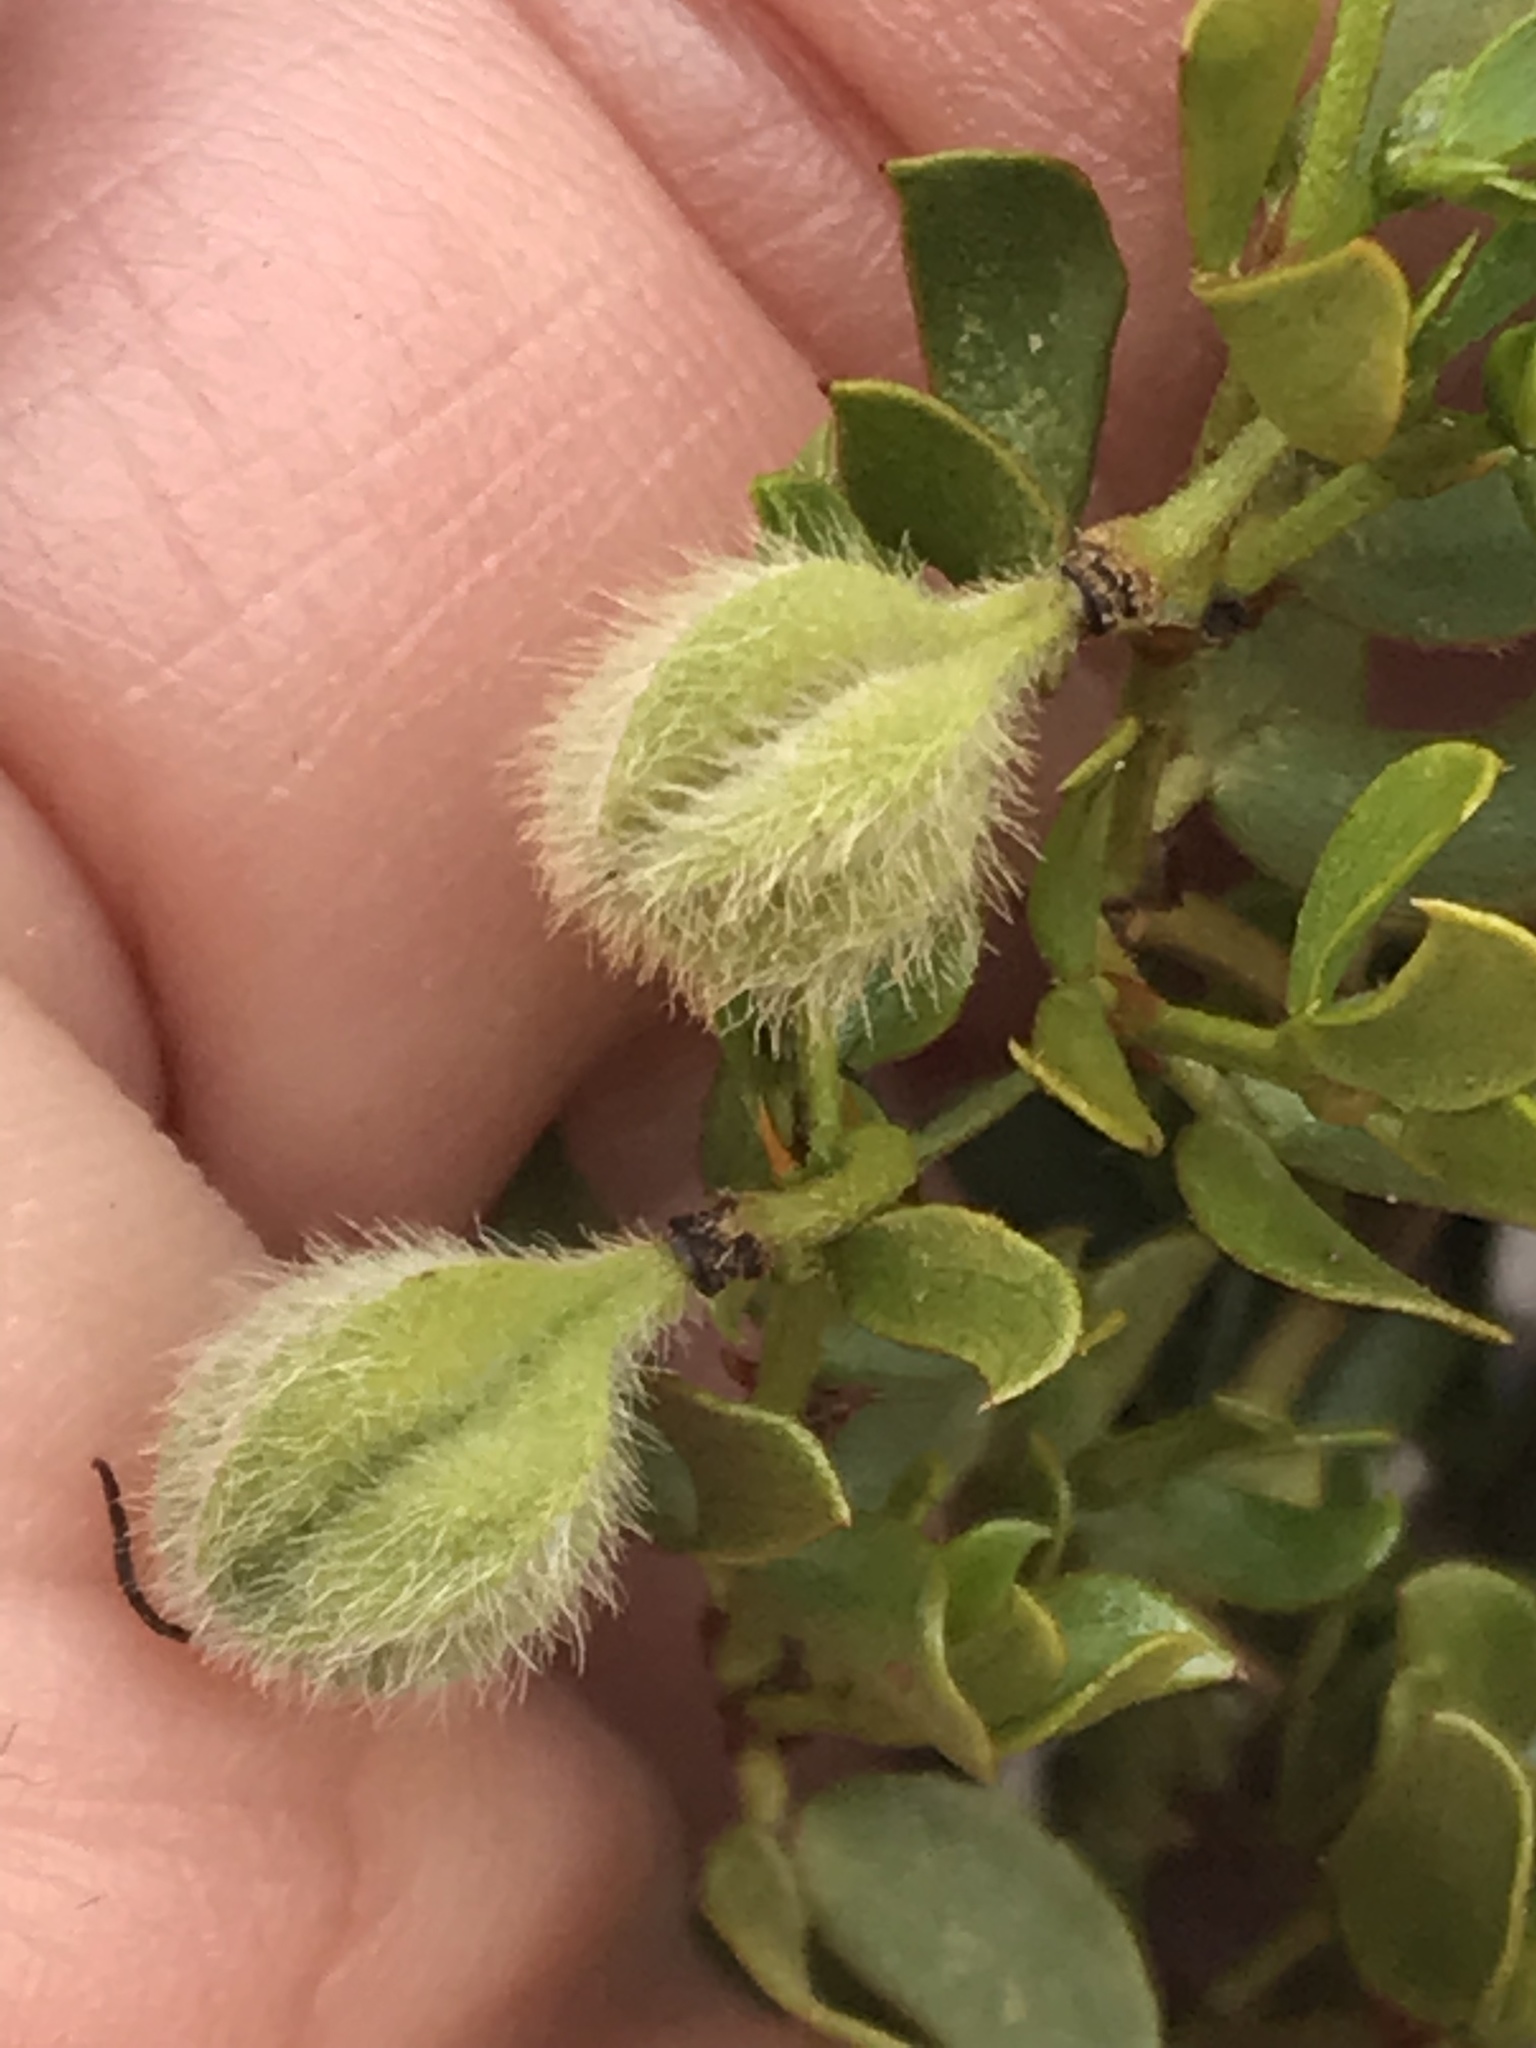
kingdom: Plantae
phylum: Tracheophyta
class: Magnoliopsida
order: Zygophyllales
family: Zygophyllaceae
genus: Larrea
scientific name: Larrea tridentata
